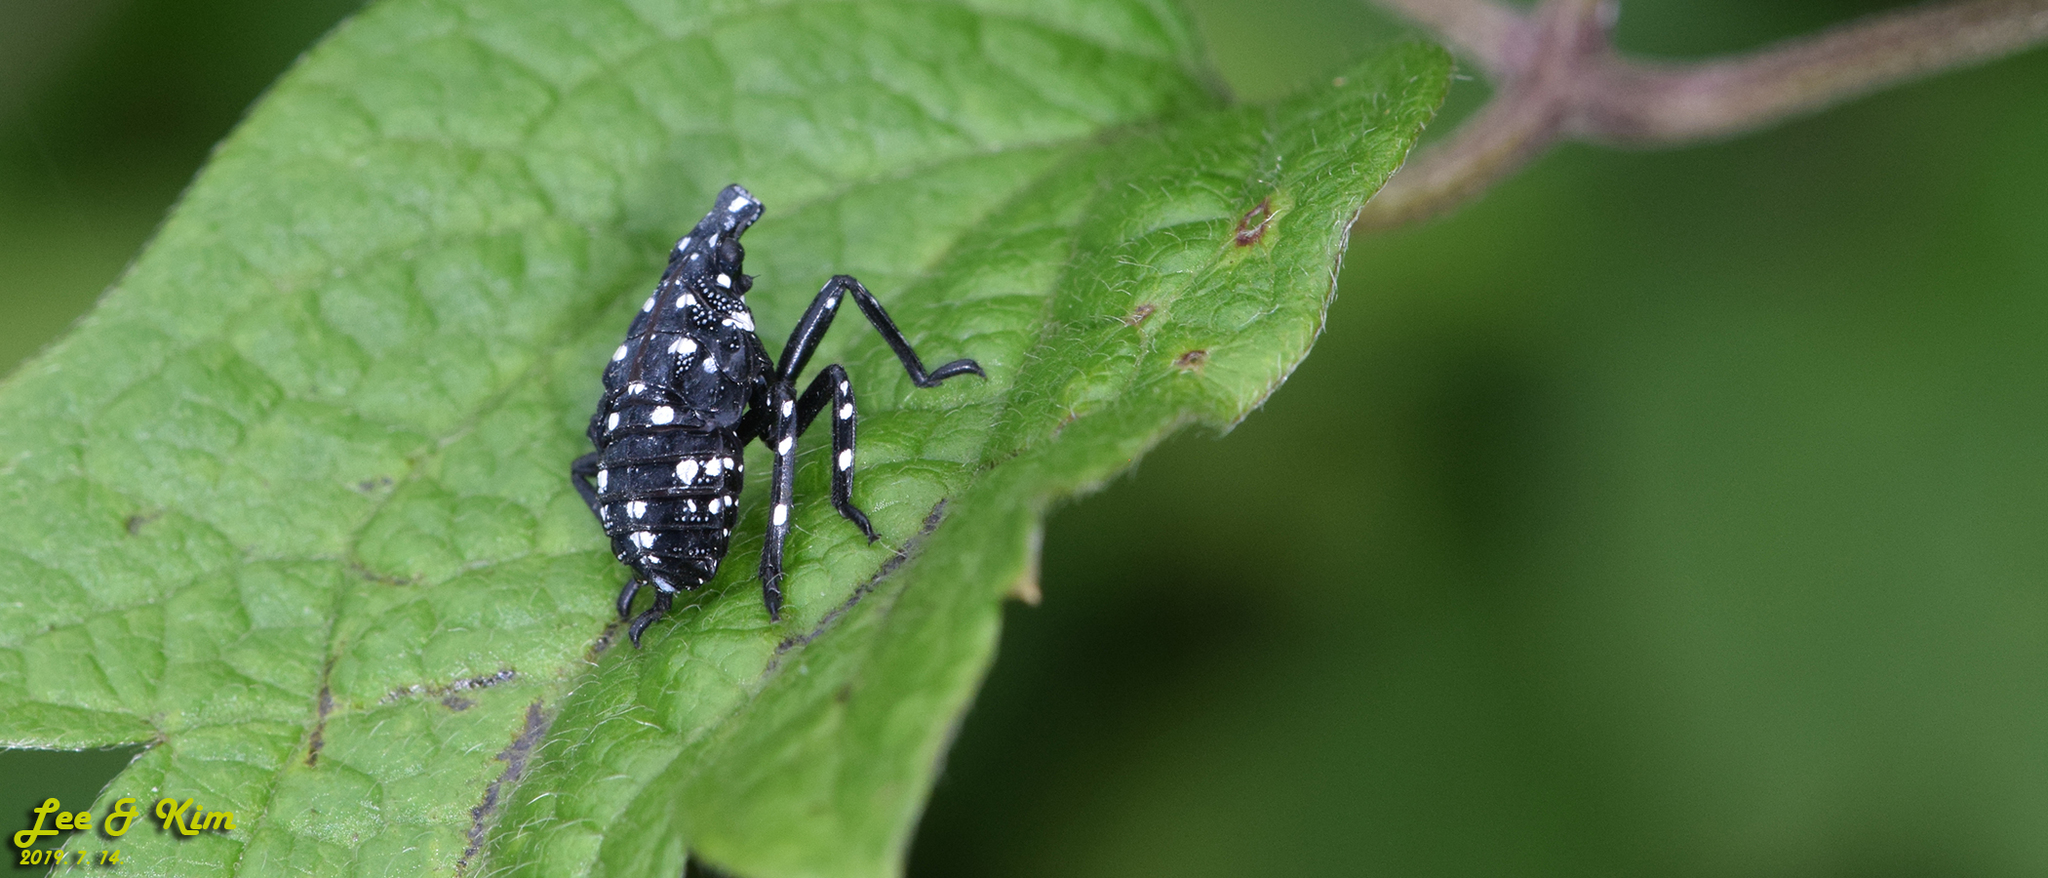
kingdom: Animalia
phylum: Arthropoda
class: Insecta
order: Hemiptera
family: Fulgoridae
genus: Lycorma
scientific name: Lycorma delicatula
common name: Spotted lanternfly
